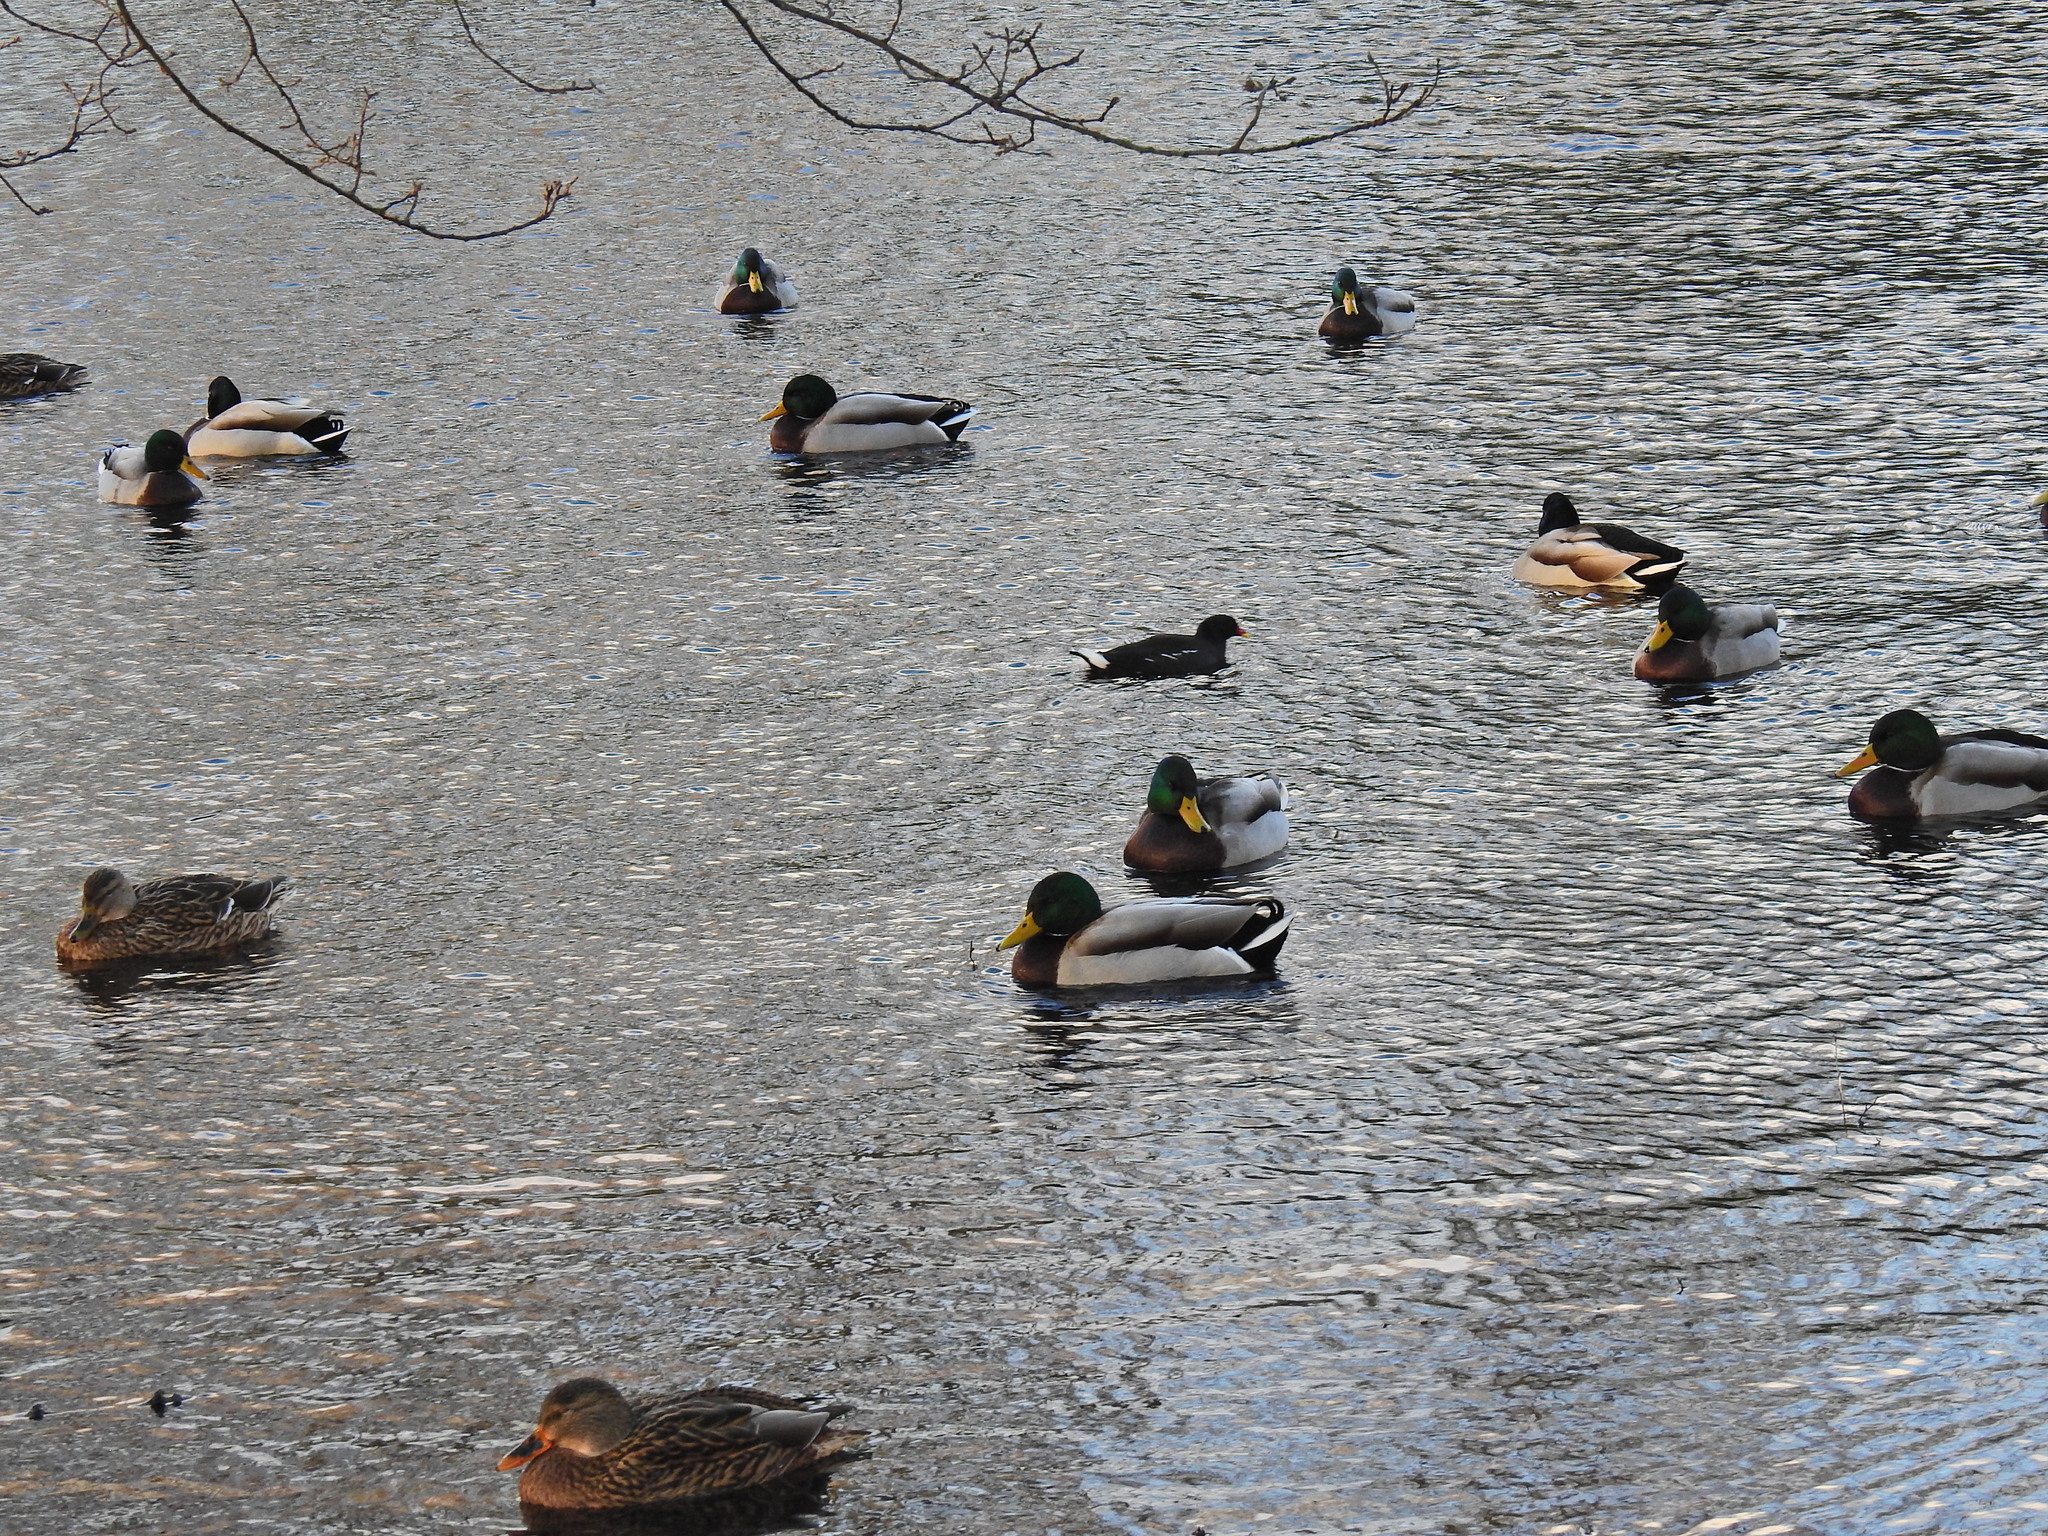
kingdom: Animalia
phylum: Chordata
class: Aves
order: Anseriformes
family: Anatidae
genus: Anas
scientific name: Anas platyrhynchos
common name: Mallard
